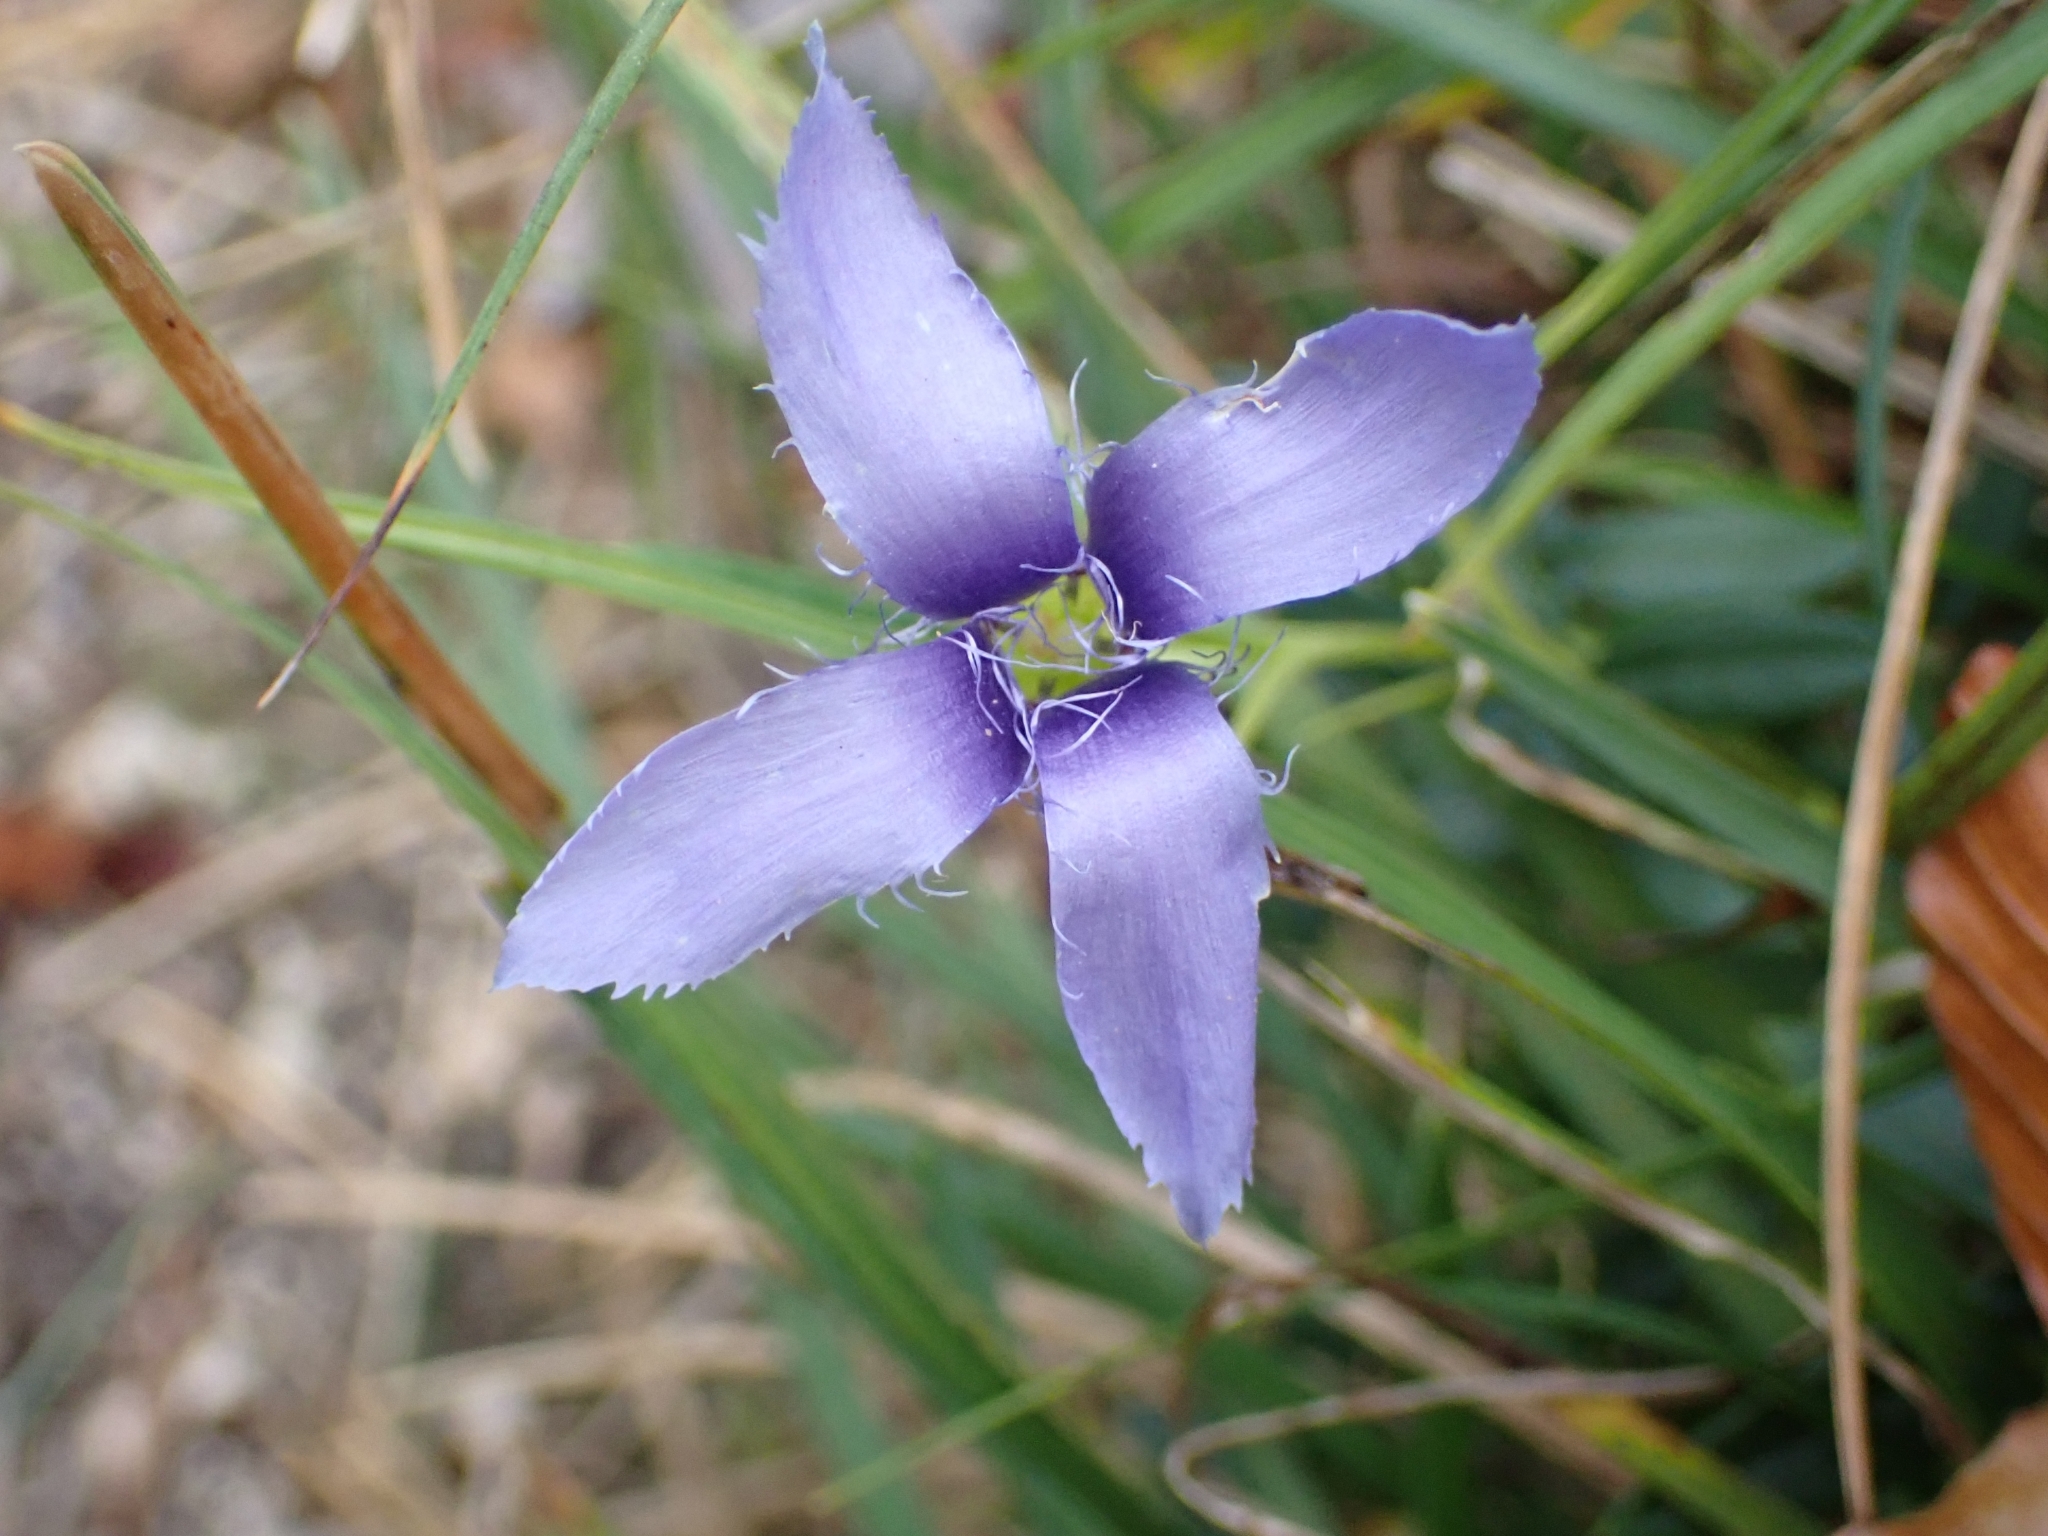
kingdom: Plantae
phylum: Tracheophyta
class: Magnoliopsida
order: Gentianales
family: Gentianaceae
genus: Gentianopsis
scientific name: Gentianopsis ciliata
